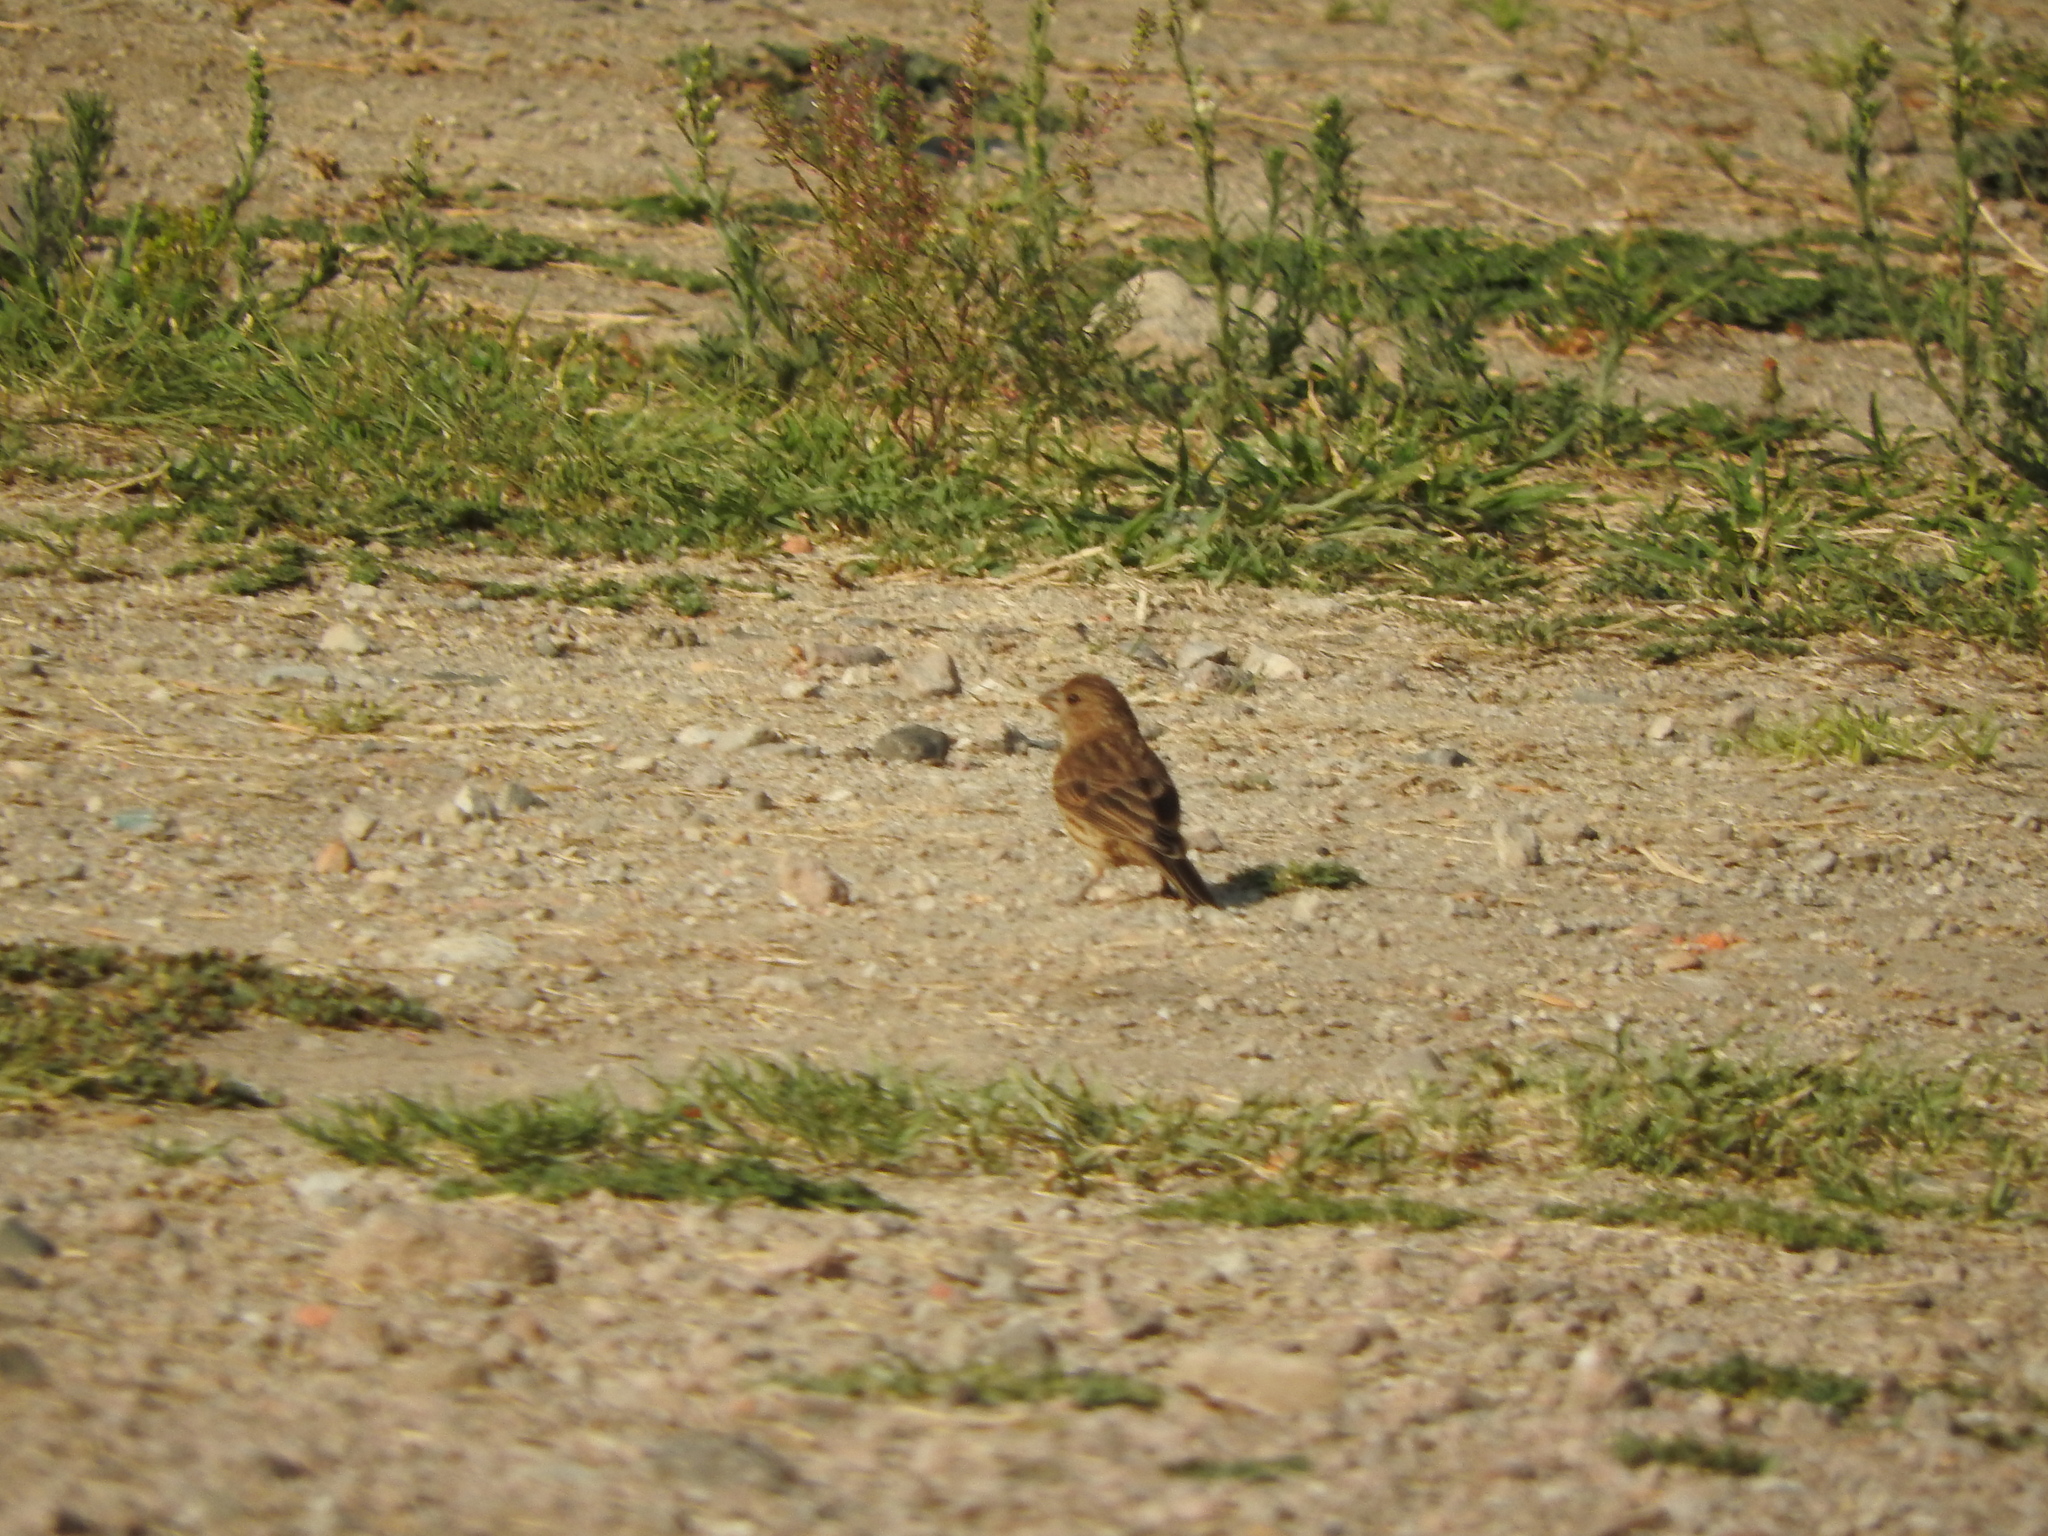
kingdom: Animalia
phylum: Chordata
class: Aves
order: Passeriformes
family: Fringillidae
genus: Haemorhous
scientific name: Haemorhous mexicanus
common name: House finch
